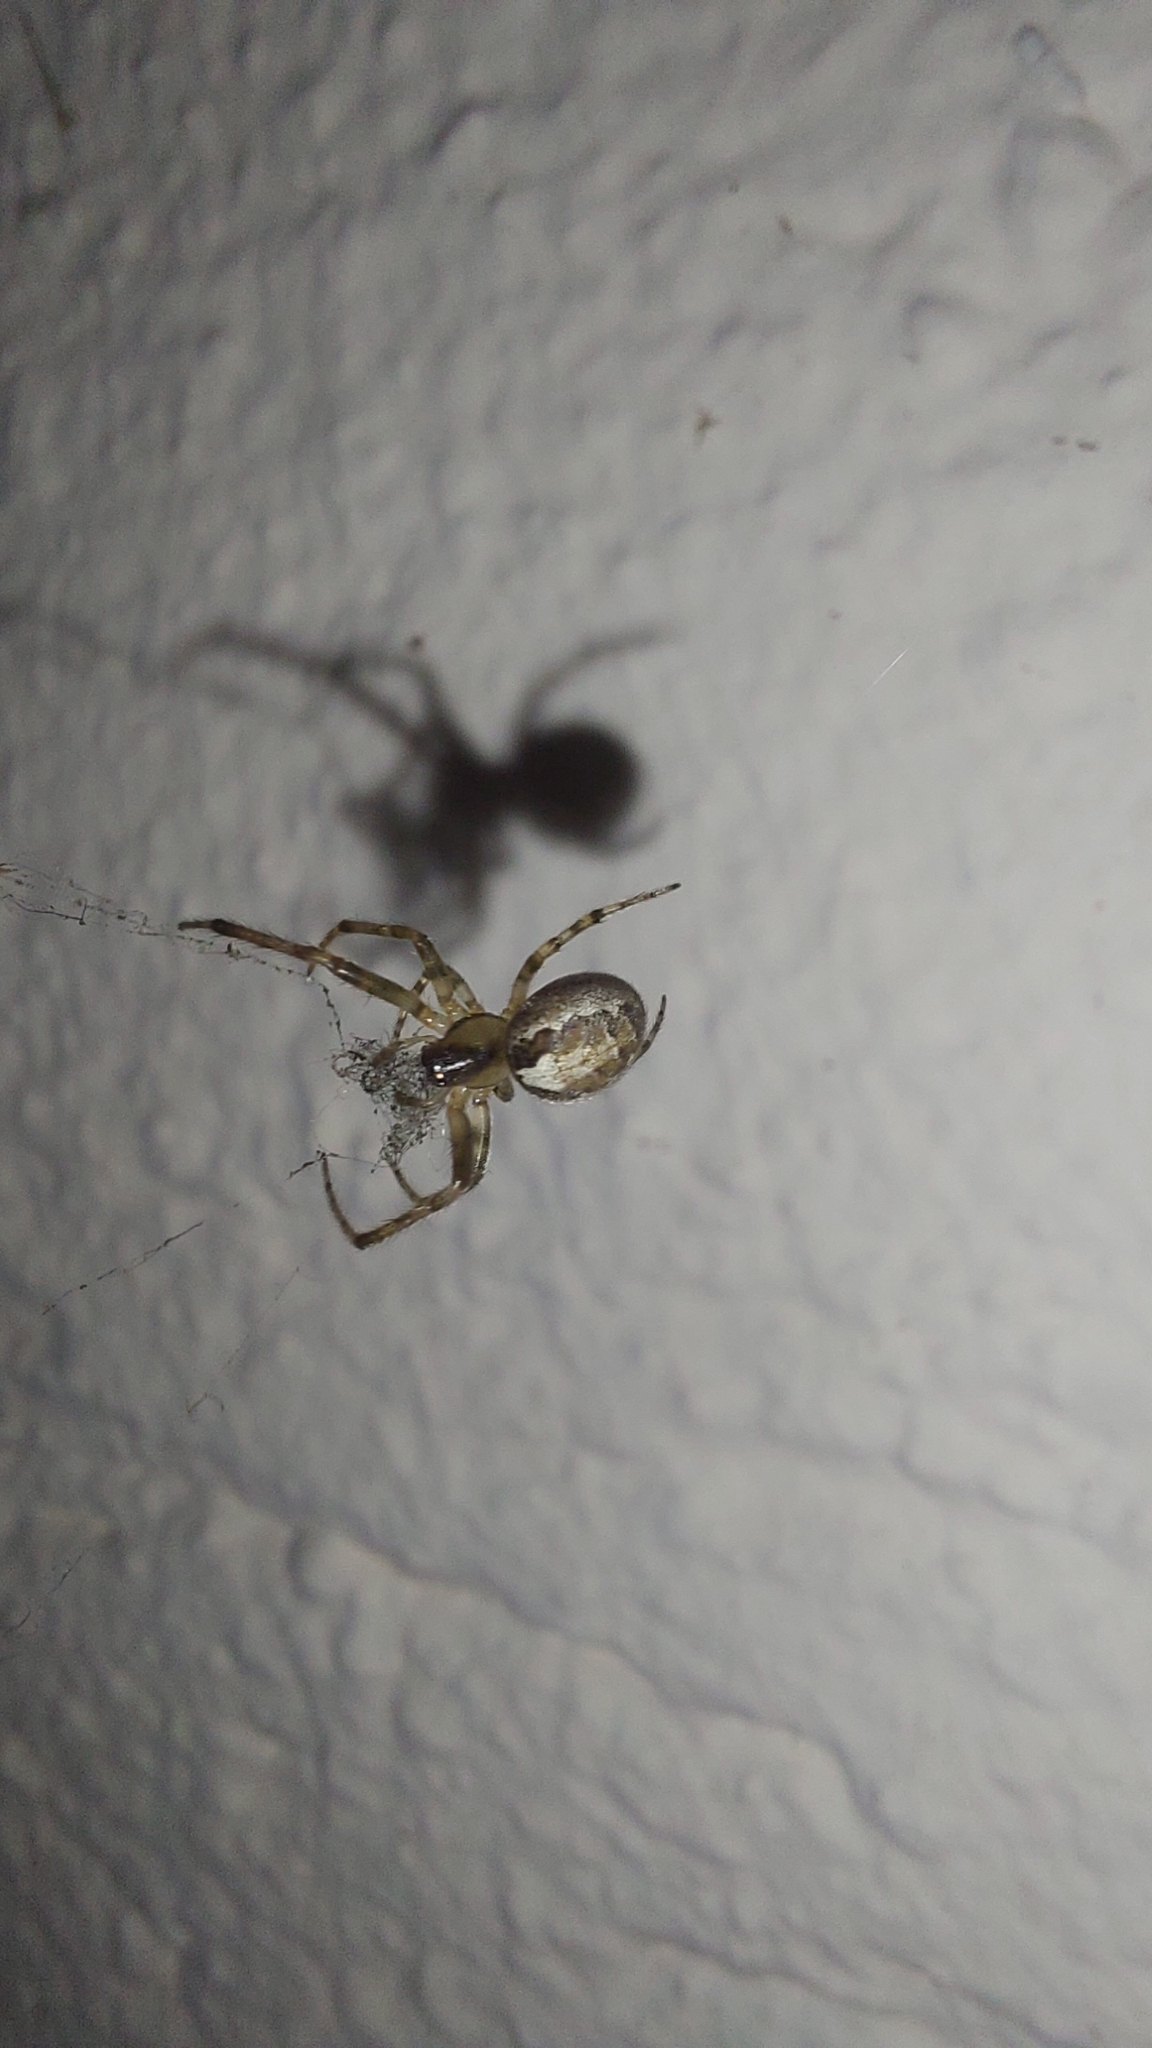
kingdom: Animalia
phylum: Arthropoda
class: Arachnida
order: Araneae
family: Araneidae
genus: Zygiella
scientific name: Zygiella x-notata
